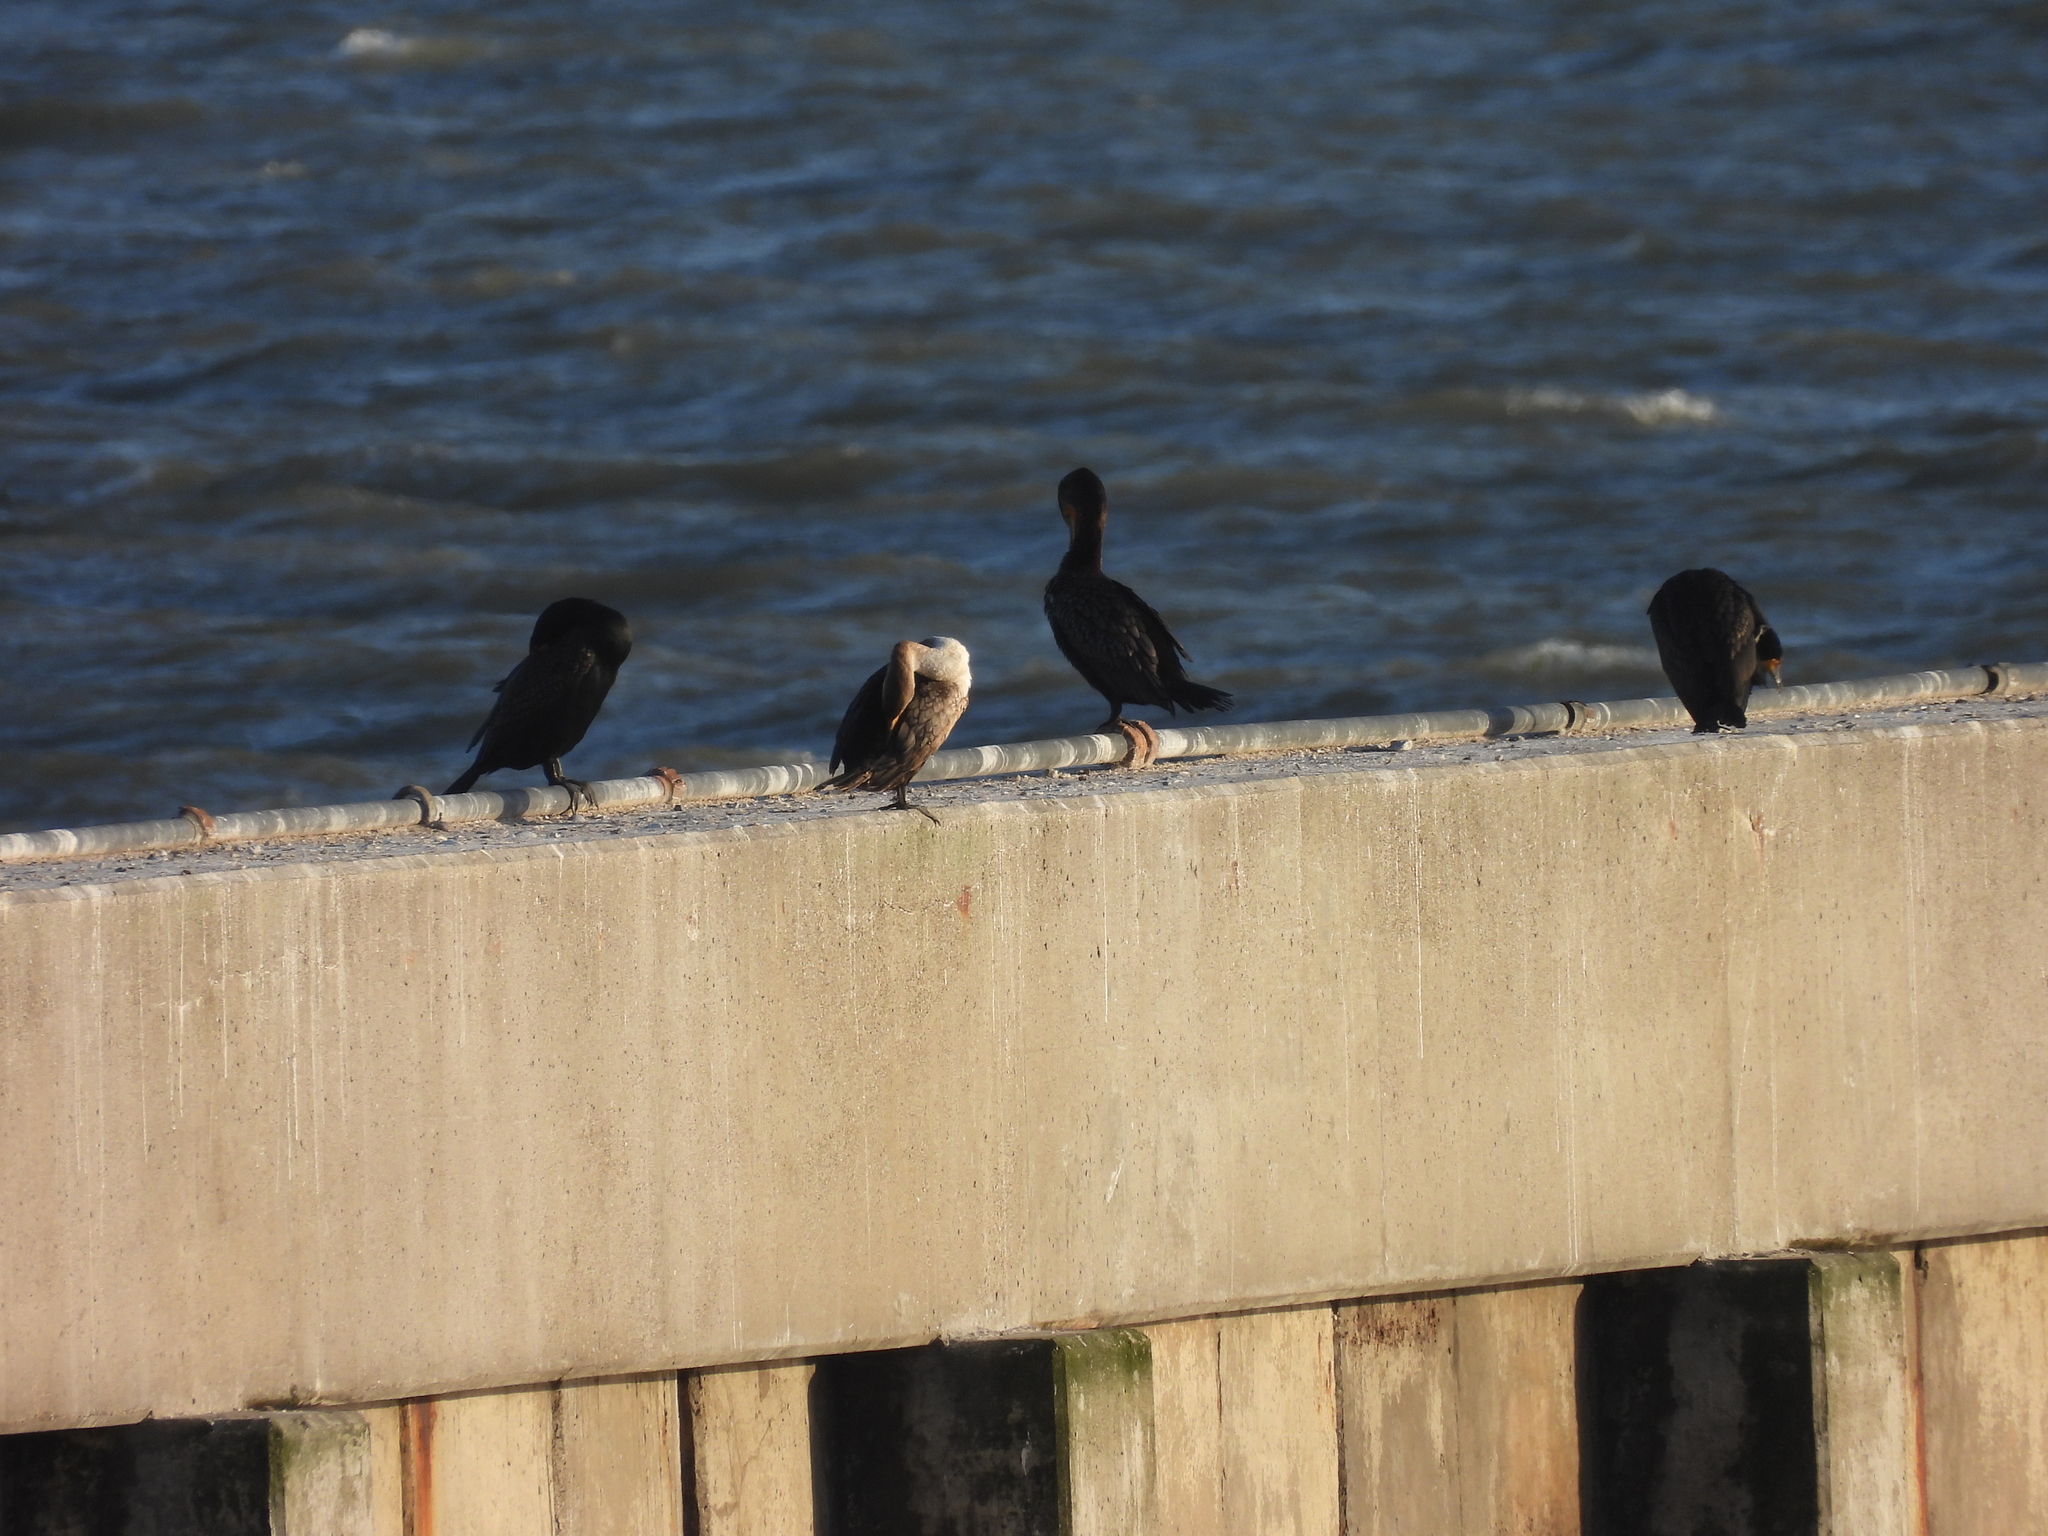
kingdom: Animalia
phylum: Chordata
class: Aves
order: Suliformes
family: Phalacrocoracidae
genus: Phalacrocorax
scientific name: Phalacrocorax auritus
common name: Double-crested cormorant
